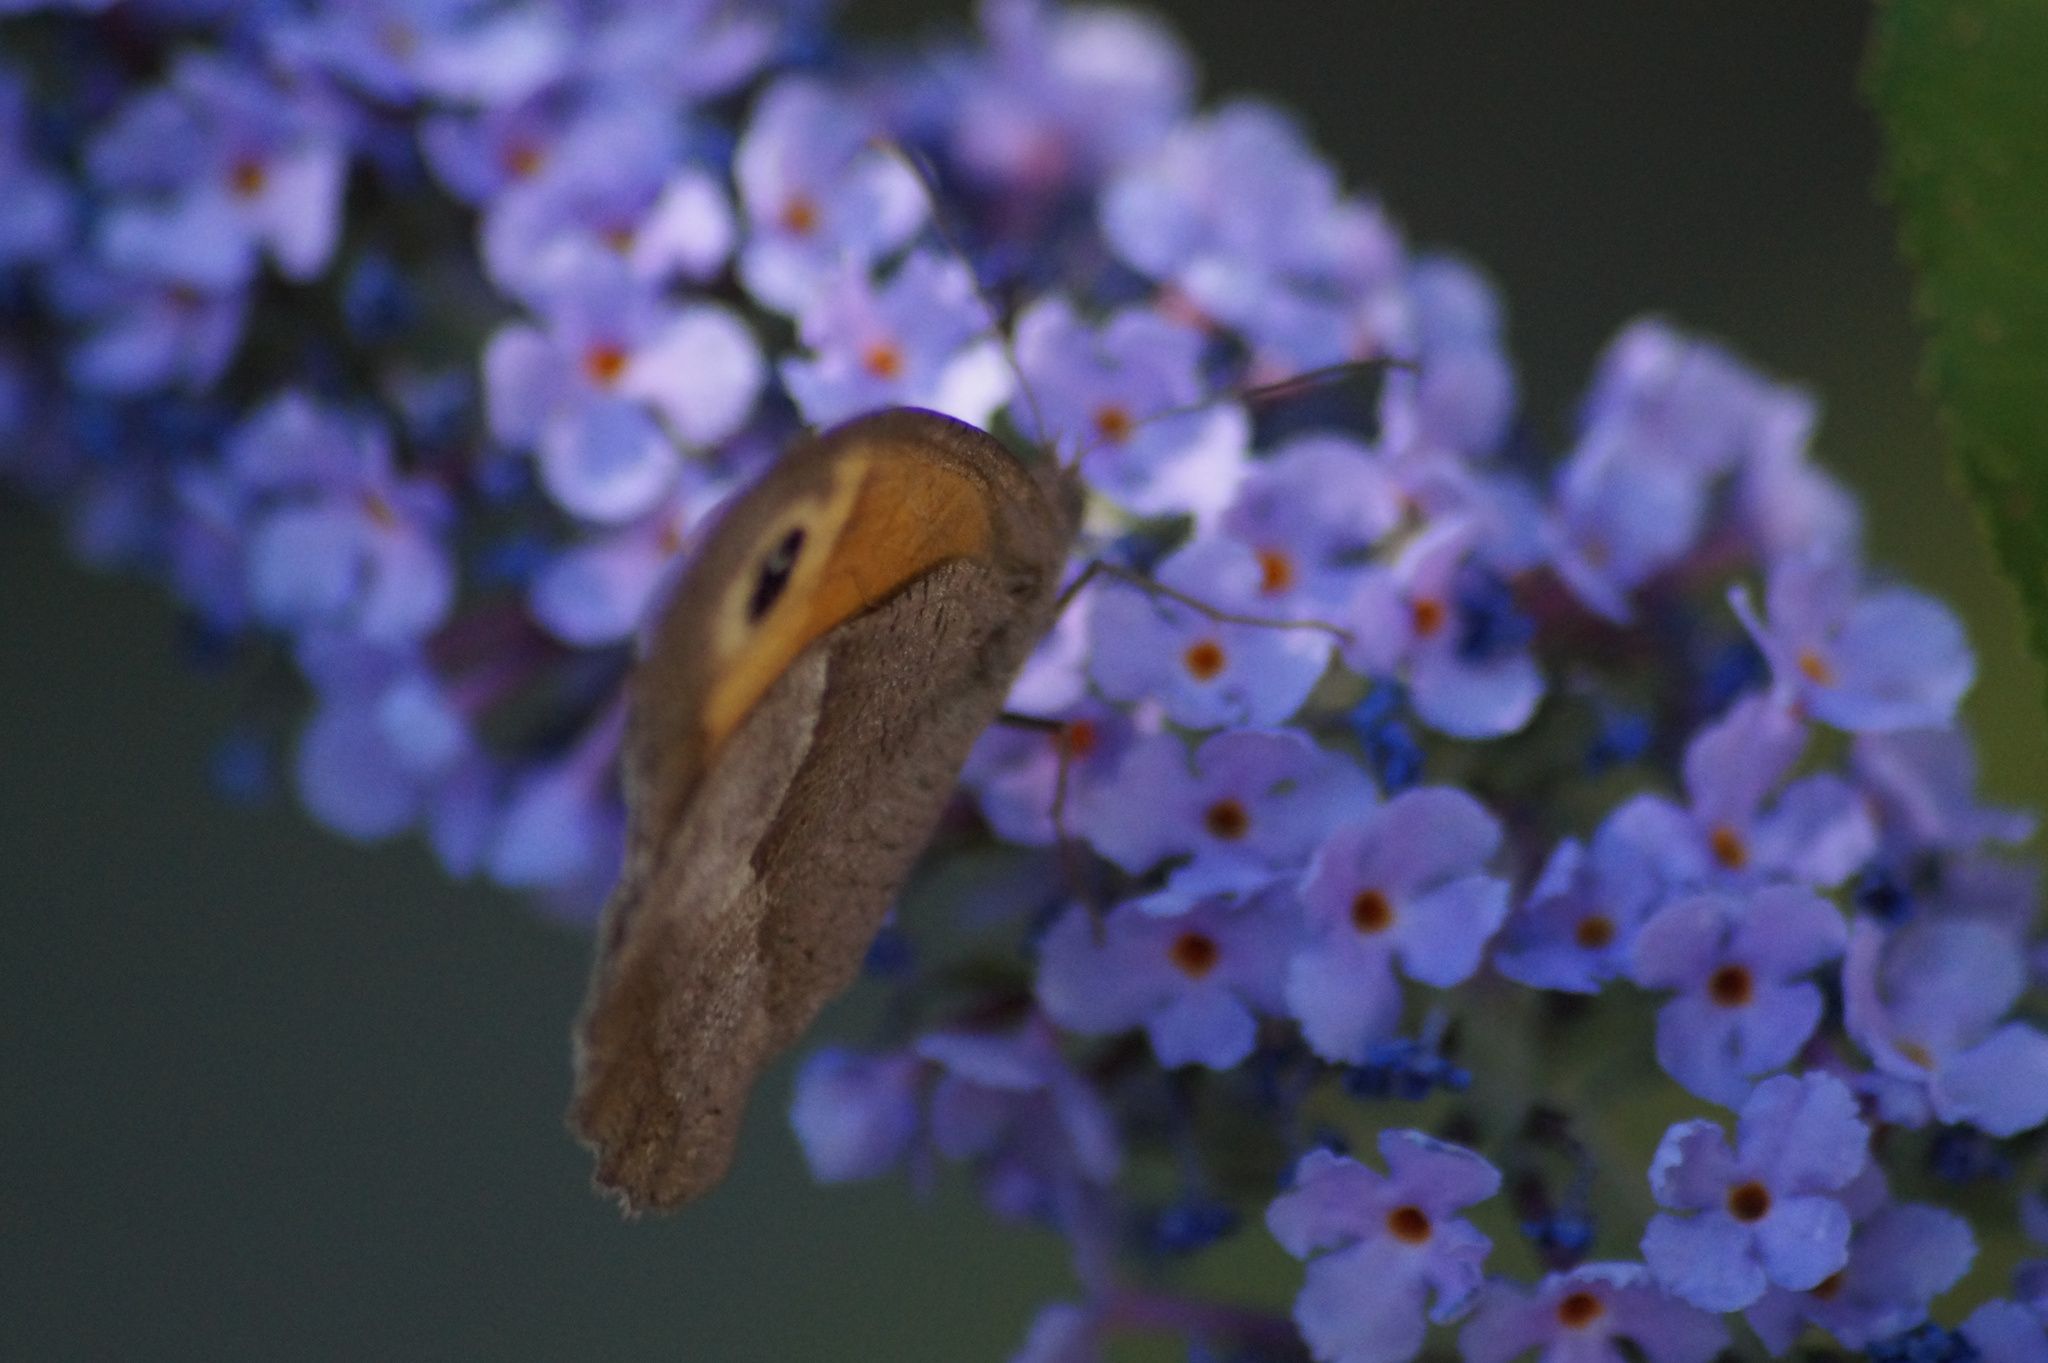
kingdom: Animalia
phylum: Arthropoda
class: Insecta
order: Lepidoptera
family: Nymphalidae
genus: Maniola
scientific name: Maniola jurtina
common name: Meadow brown
